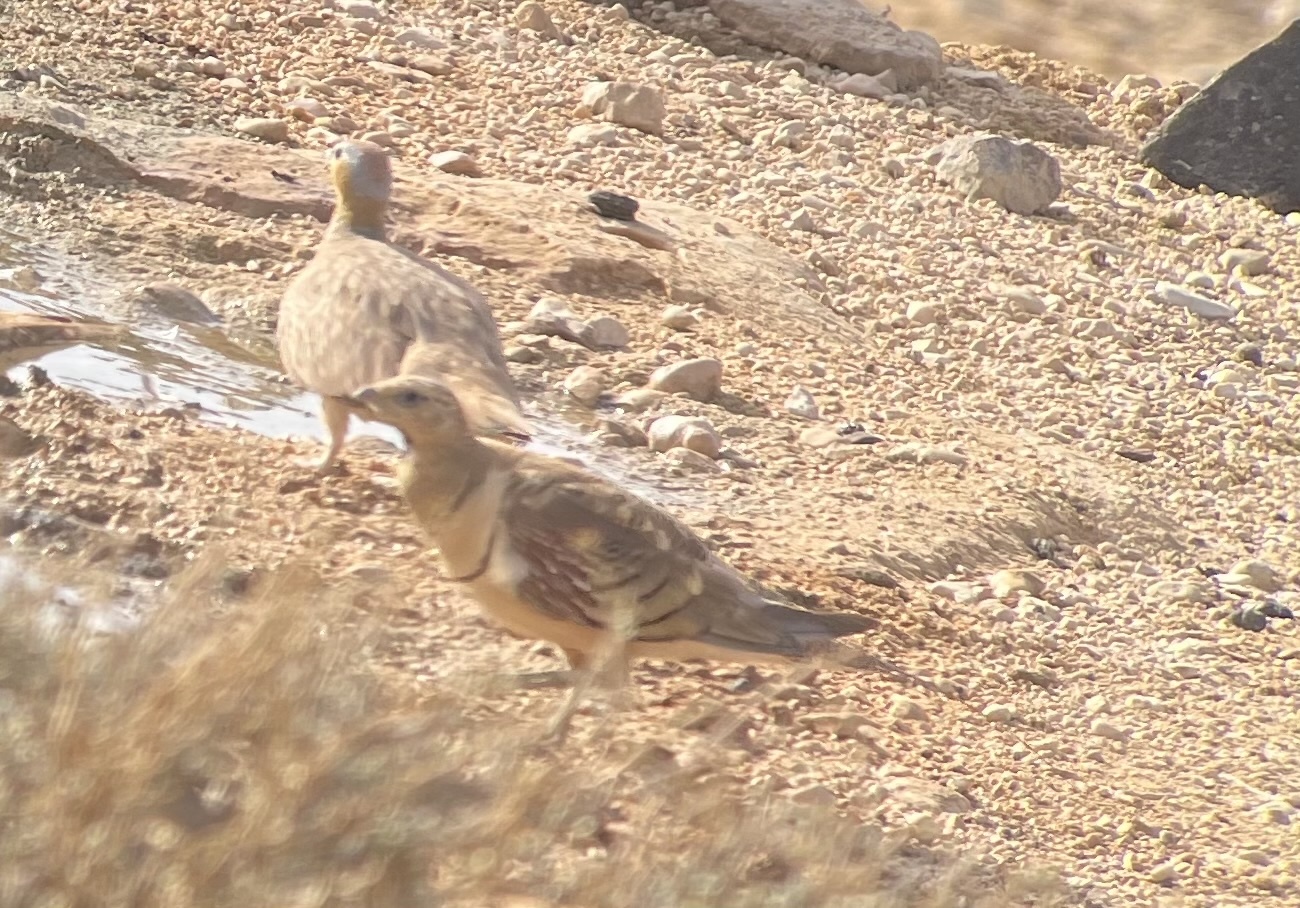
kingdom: Animalia
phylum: Chordata
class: Aves
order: Pteroclidiformes
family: Pteroclididae
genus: Pterocles
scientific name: Pterocles alchata
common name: Pin-tailed sandgrouse
